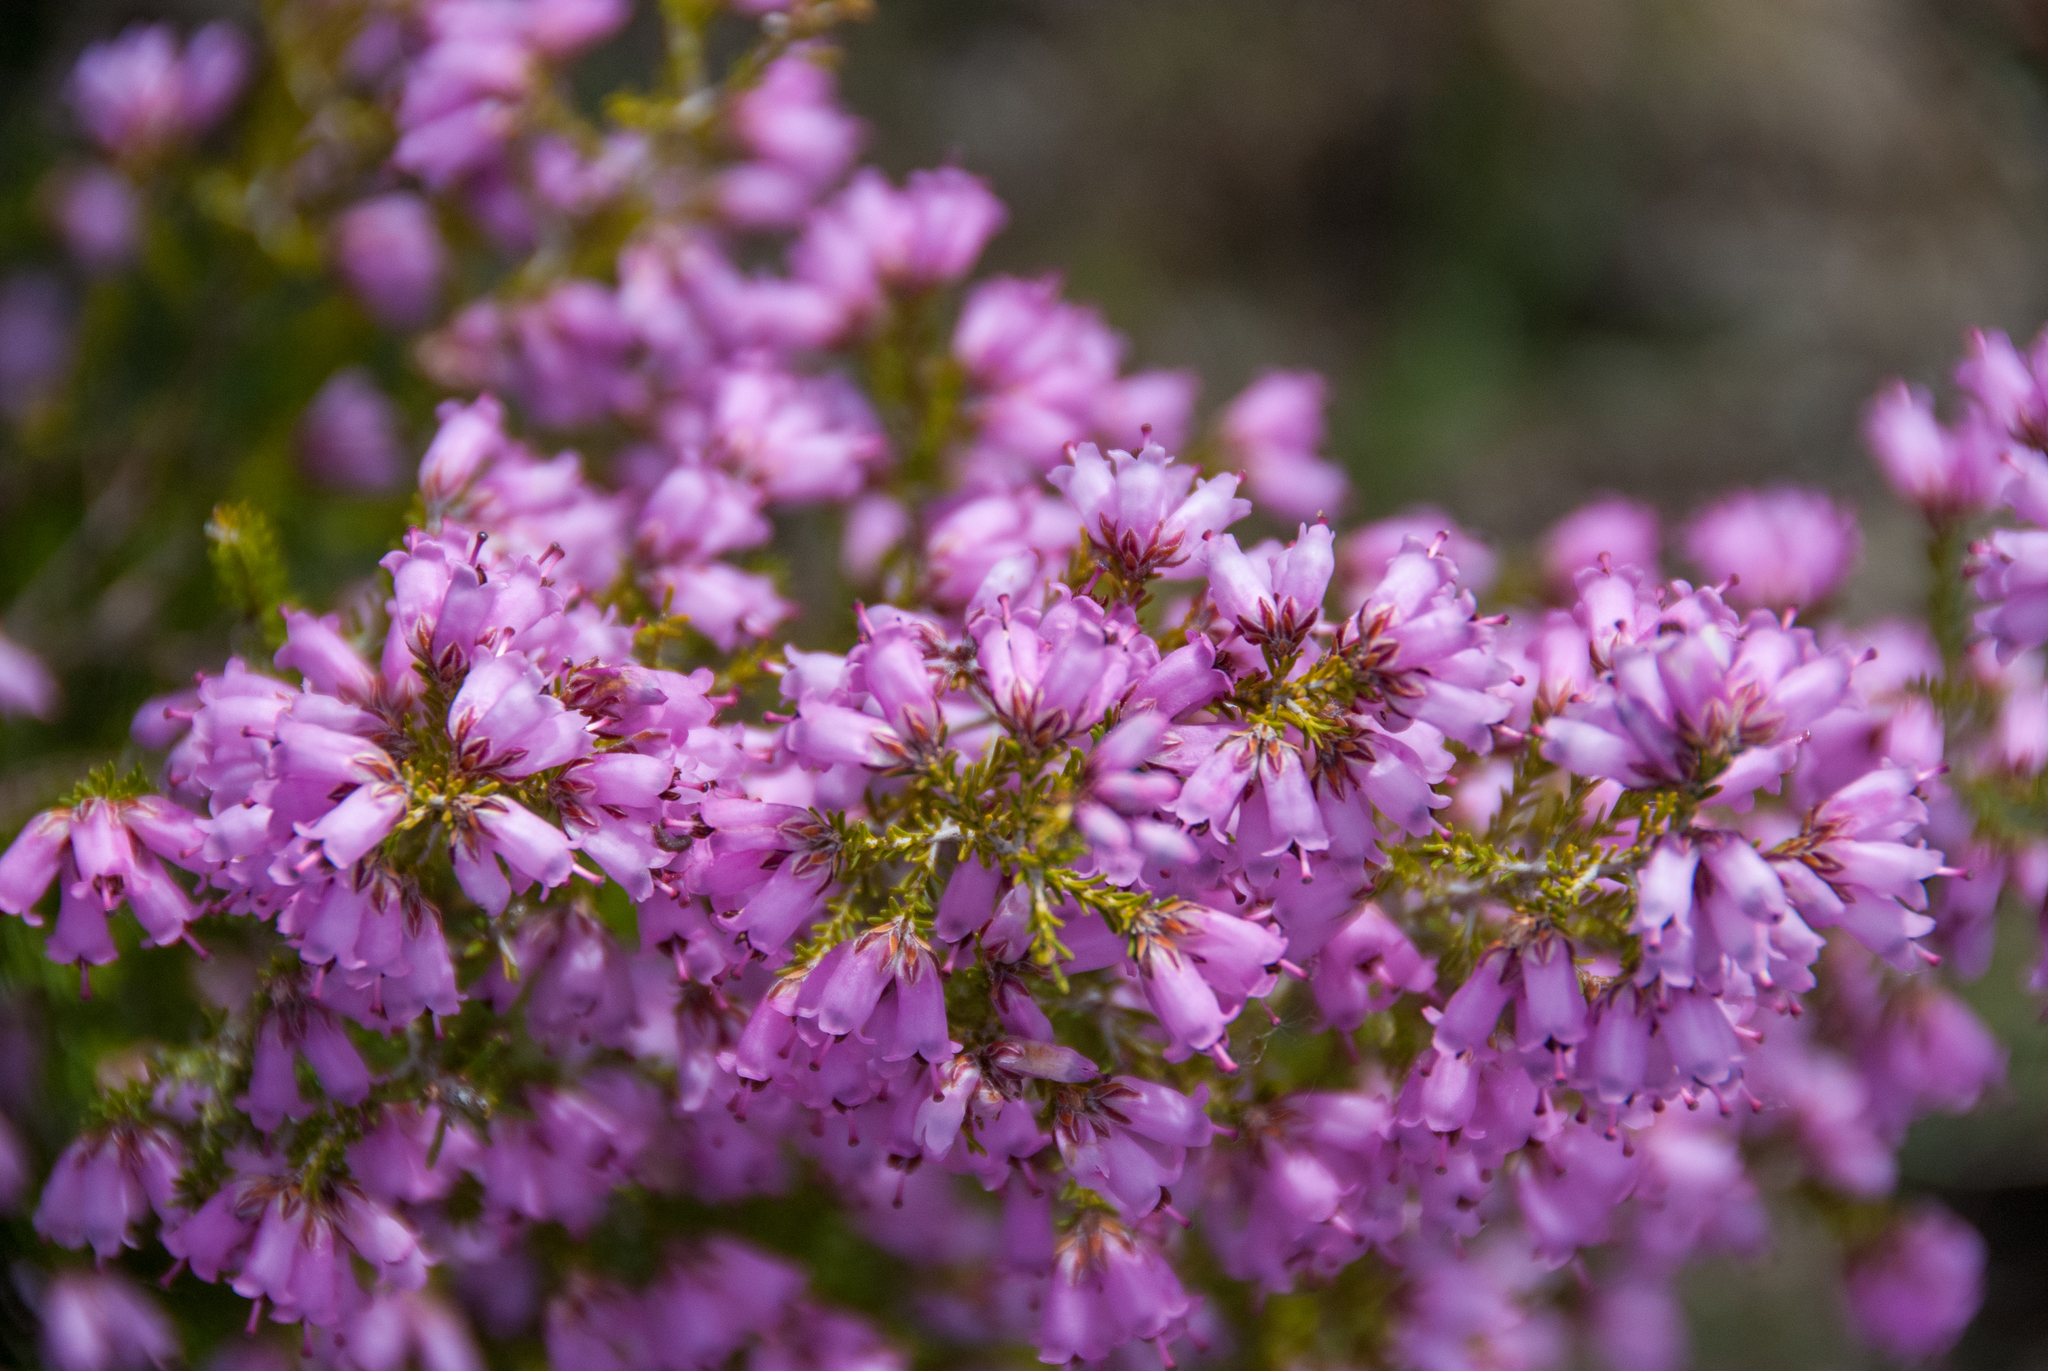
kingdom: Plantae
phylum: Tracheophyta
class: Magnoliopsida
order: Ericales
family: Ericaceae
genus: Erica
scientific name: Erica australis
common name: Spanish heath
